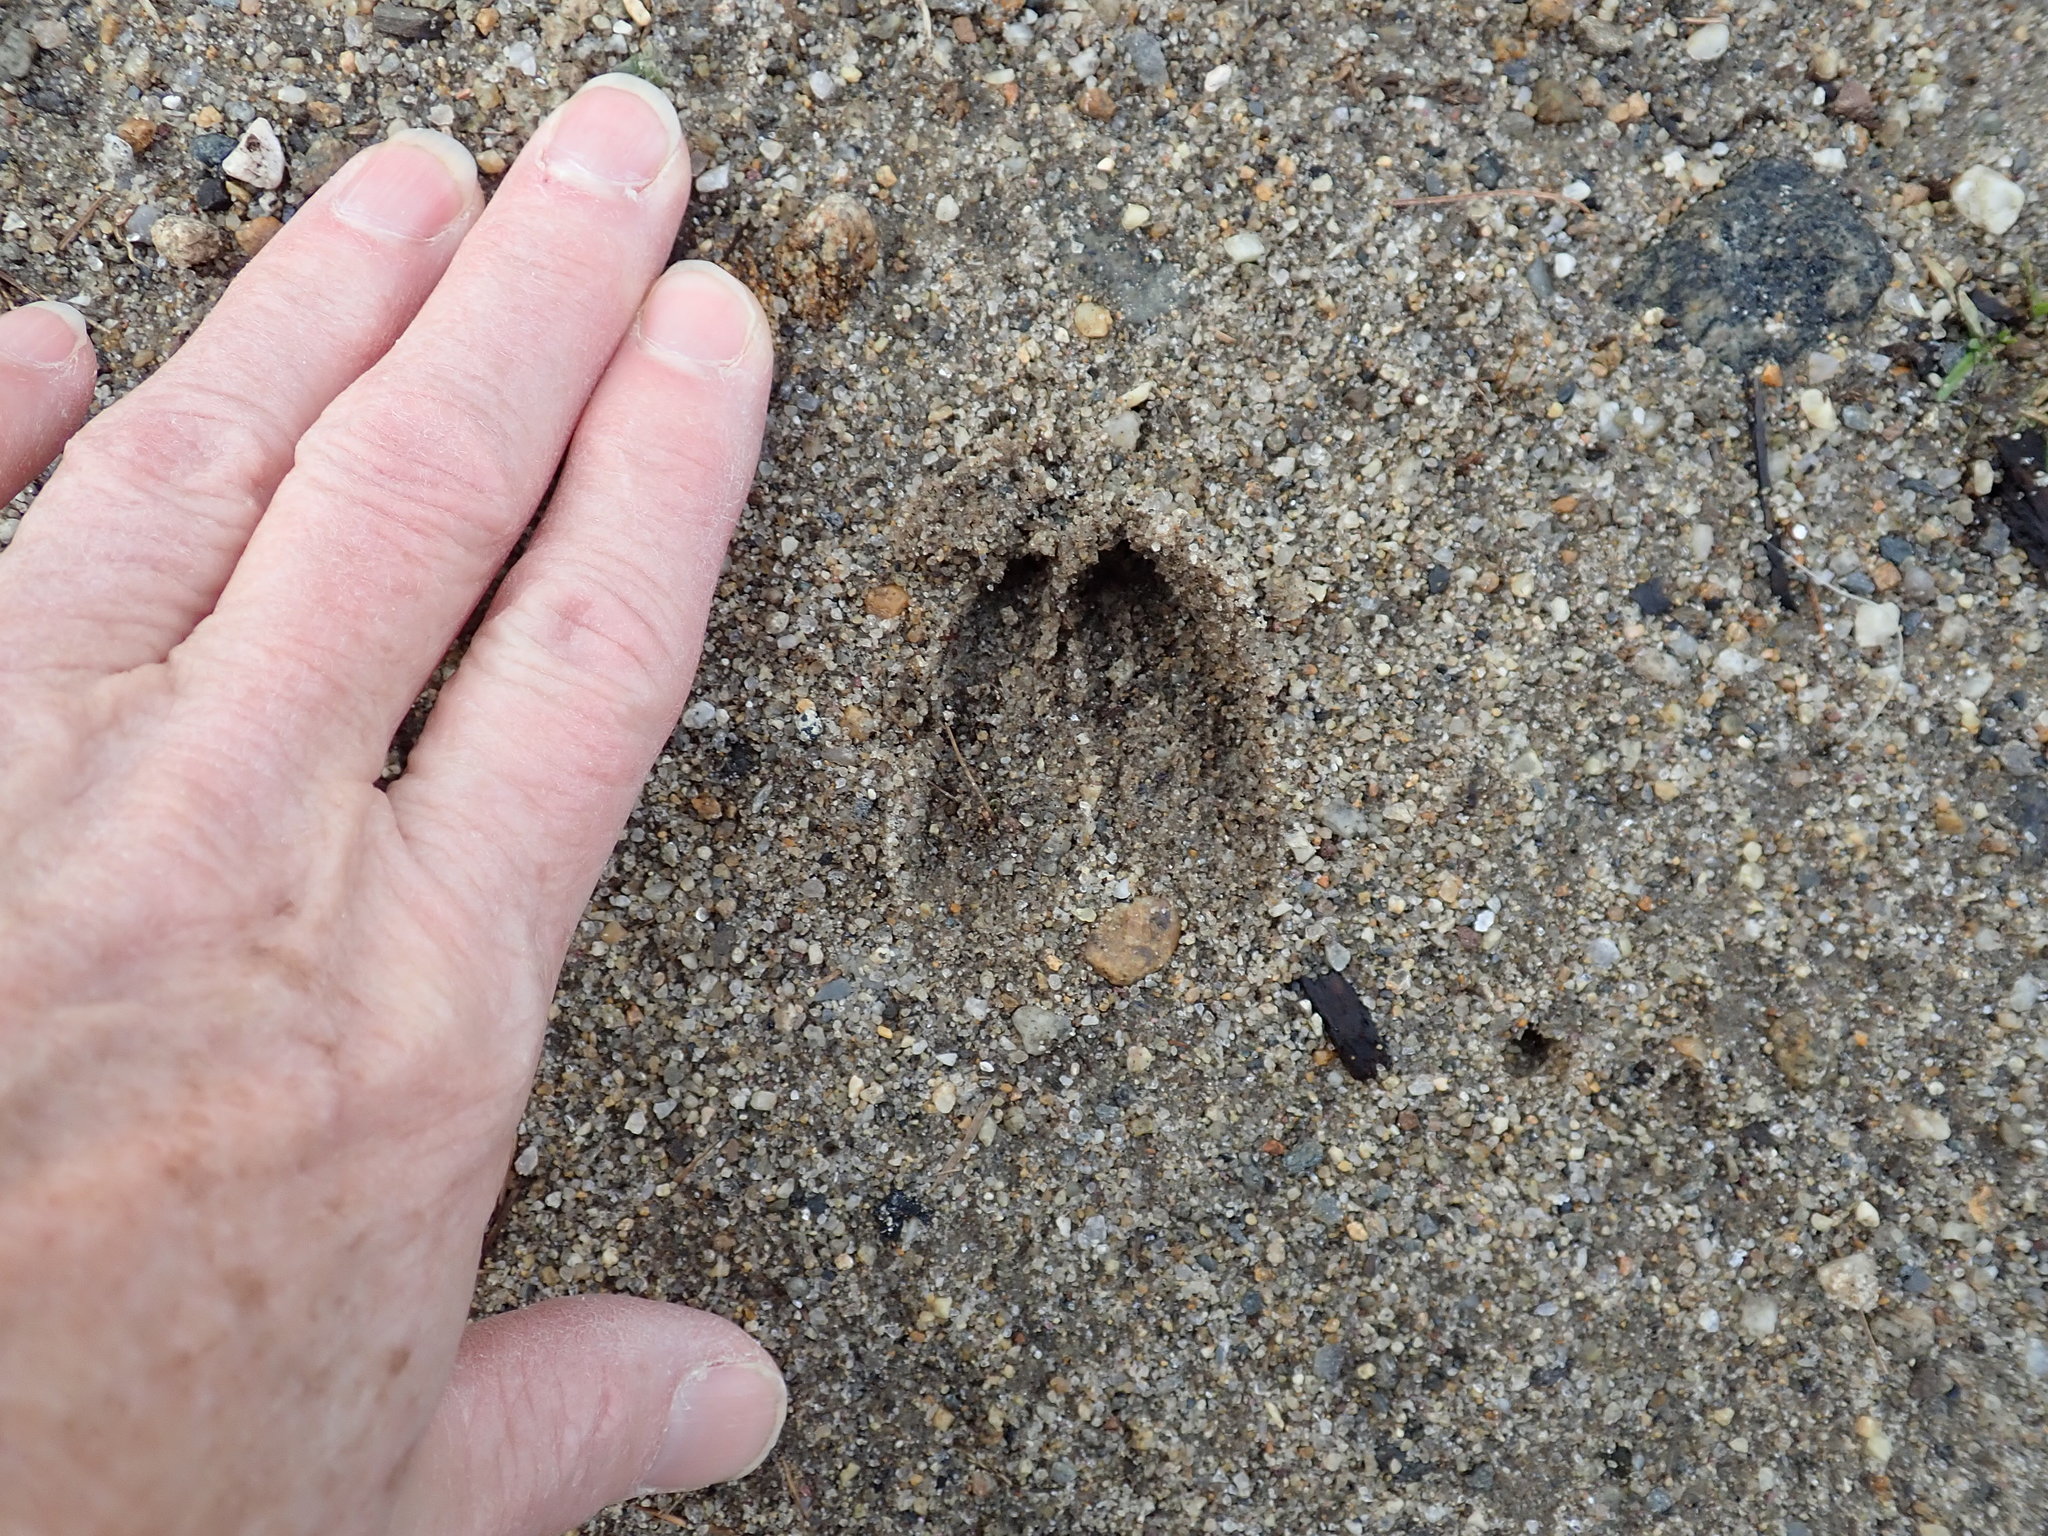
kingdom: Animalia
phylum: Chordata
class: Mammalia
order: Artiodactyla
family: Cervidae
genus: Odocoileus
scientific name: Odocoileus virginianus
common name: White-tailed deer
